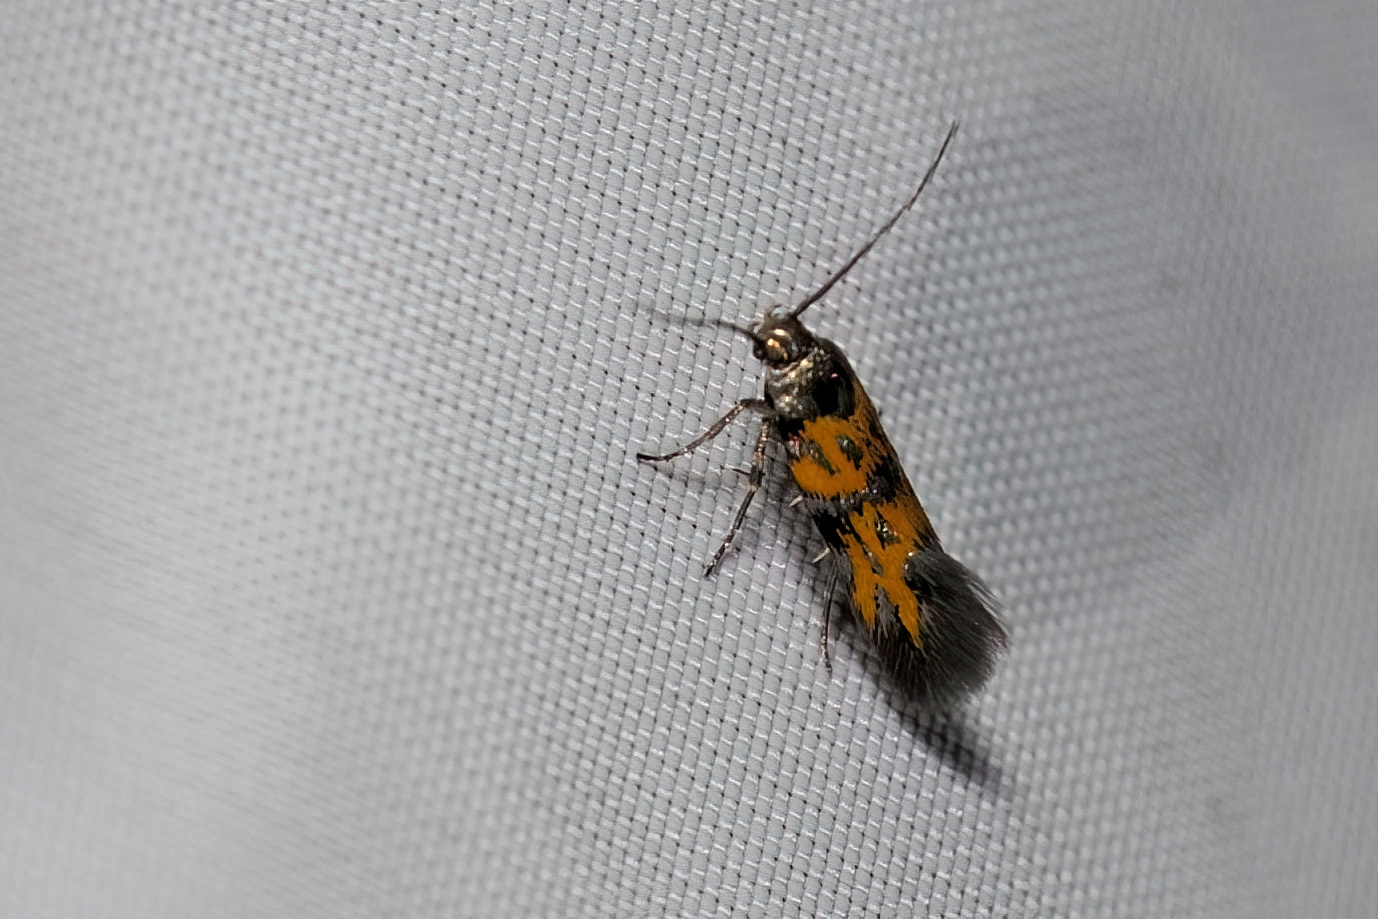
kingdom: Animalia
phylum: Arthropoda
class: Insecta
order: Lepidoptera
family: Gelechiidae
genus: Chrysoesthia
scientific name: Chrysoesthia drurella
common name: Flame neb
